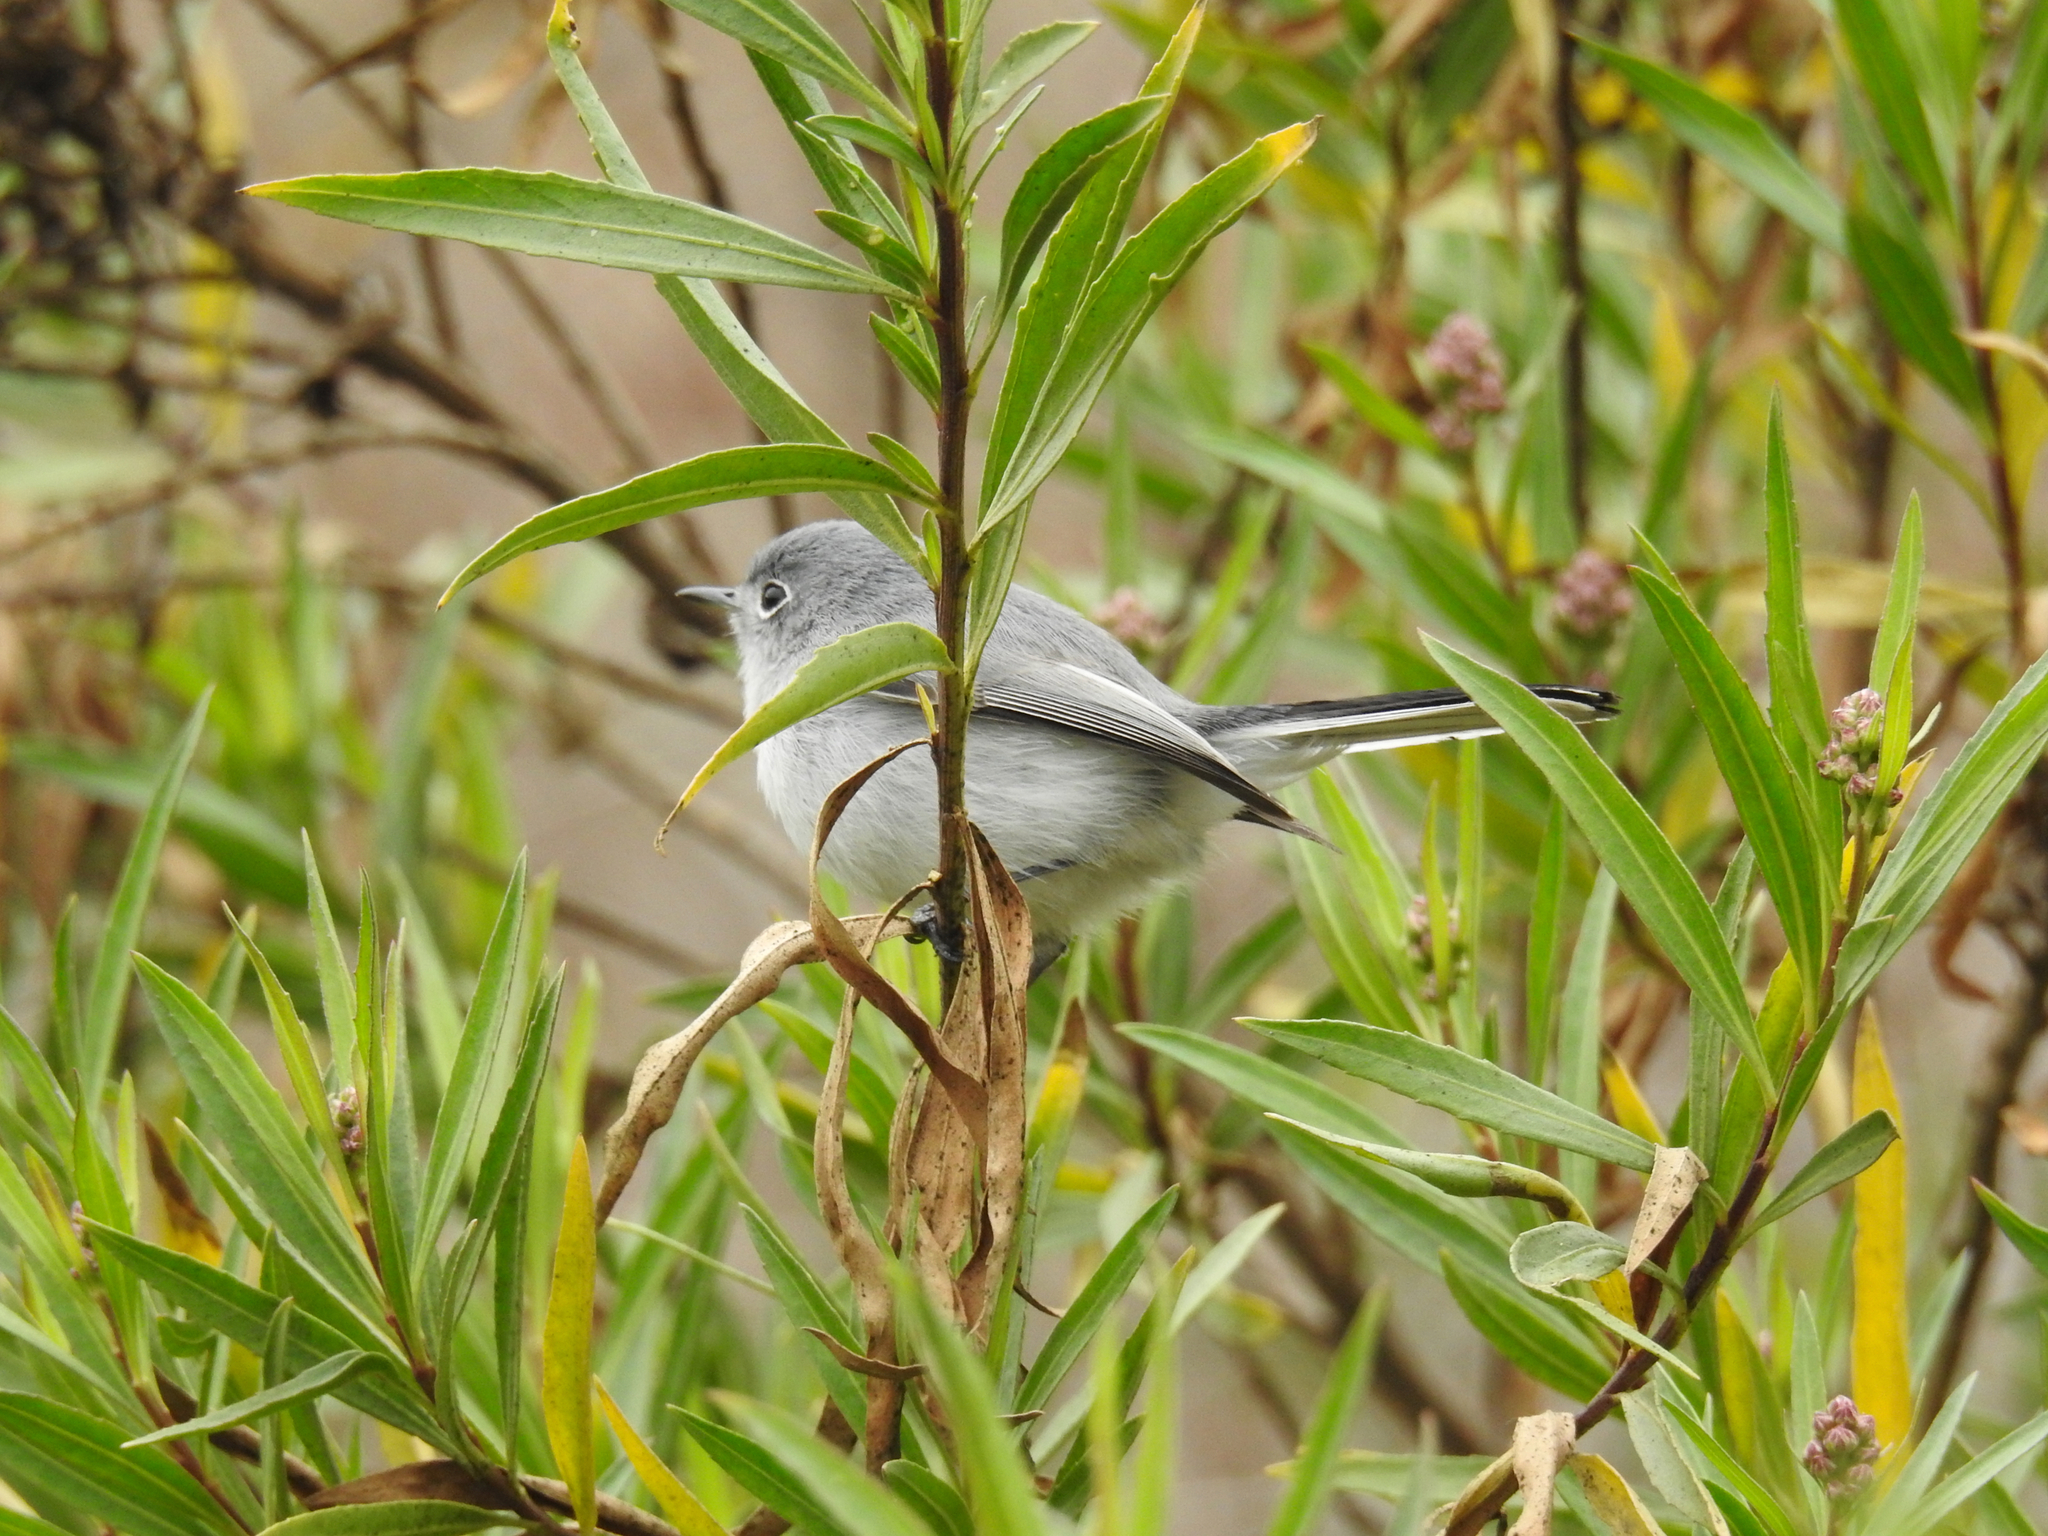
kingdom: Animalia
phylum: Chordata
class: Aves
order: Passeriformes
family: Polioptilidae
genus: Polioptila
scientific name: Polioptila caerulea
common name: Blue-gray gnatcatcher
